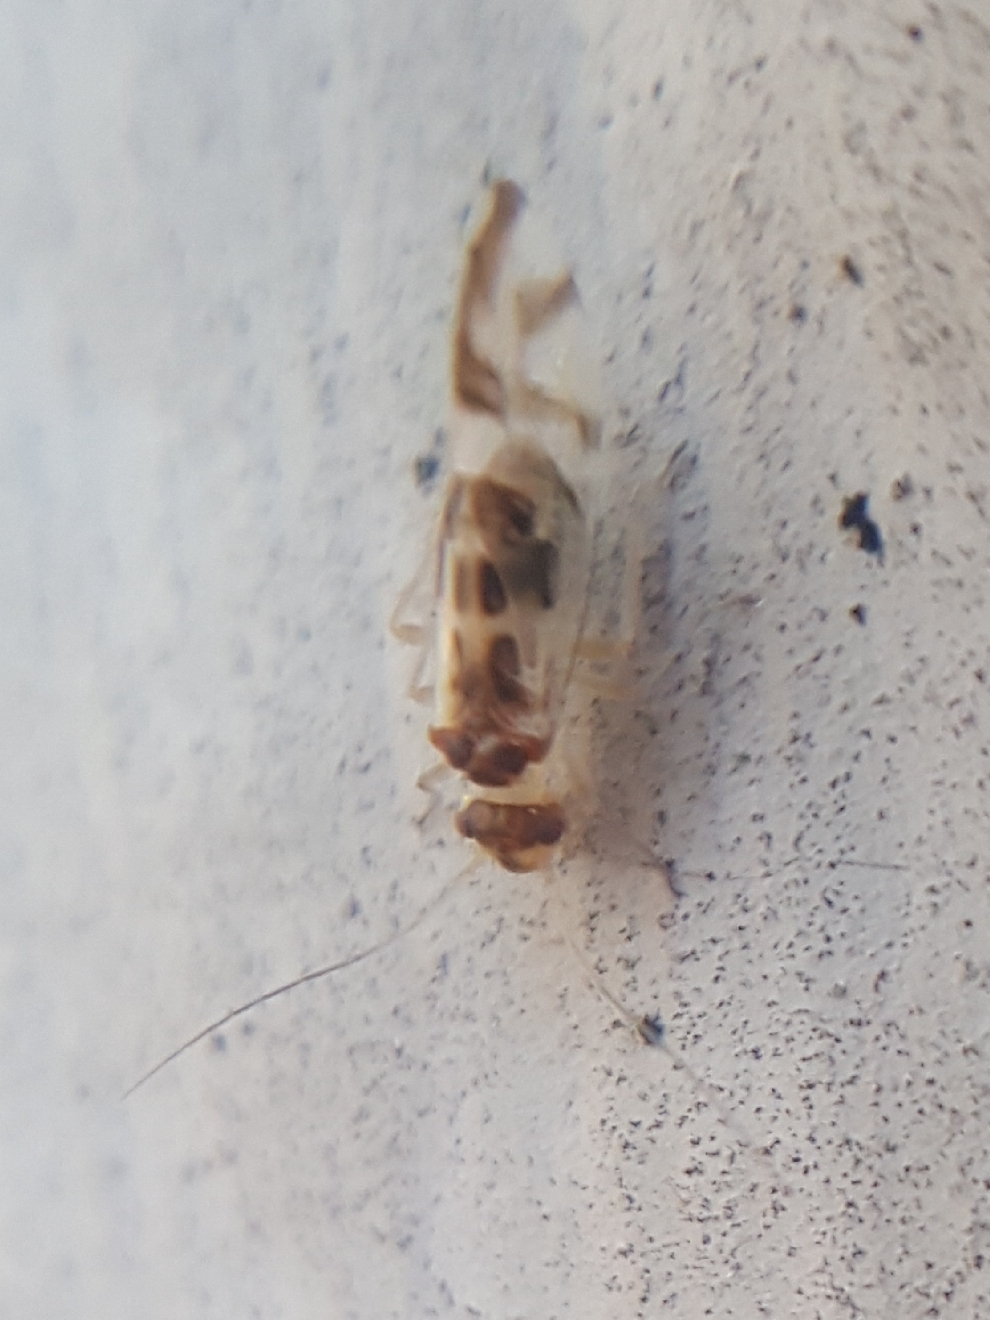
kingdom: Animalia
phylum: Arthropoda
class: Insecta
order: Psocodea
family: Stenopsocidae
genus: Graphopsocus
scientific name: Graphopsocus cruciatus
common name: Lizard bark louse
